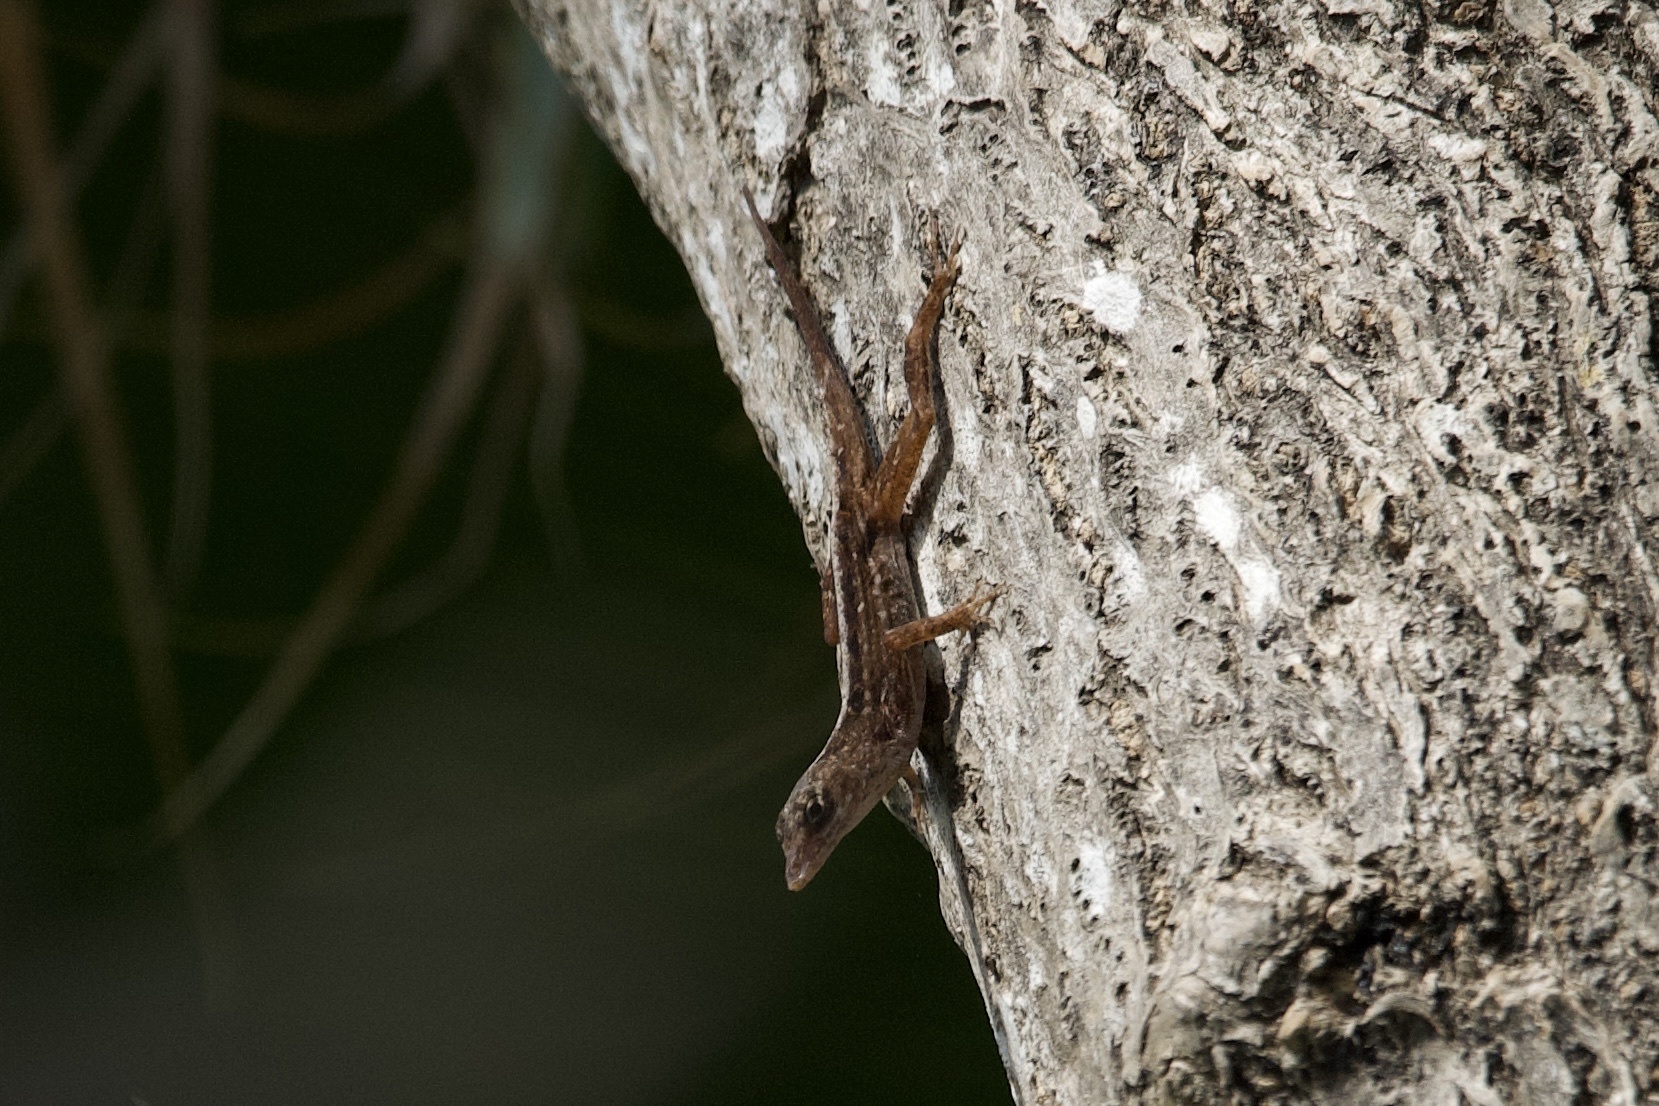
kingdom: Animalia
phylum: Chordata
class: Squamata
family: Dactyloidae
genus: Anolis
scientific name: Anolis sagrei
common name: Brown anole
